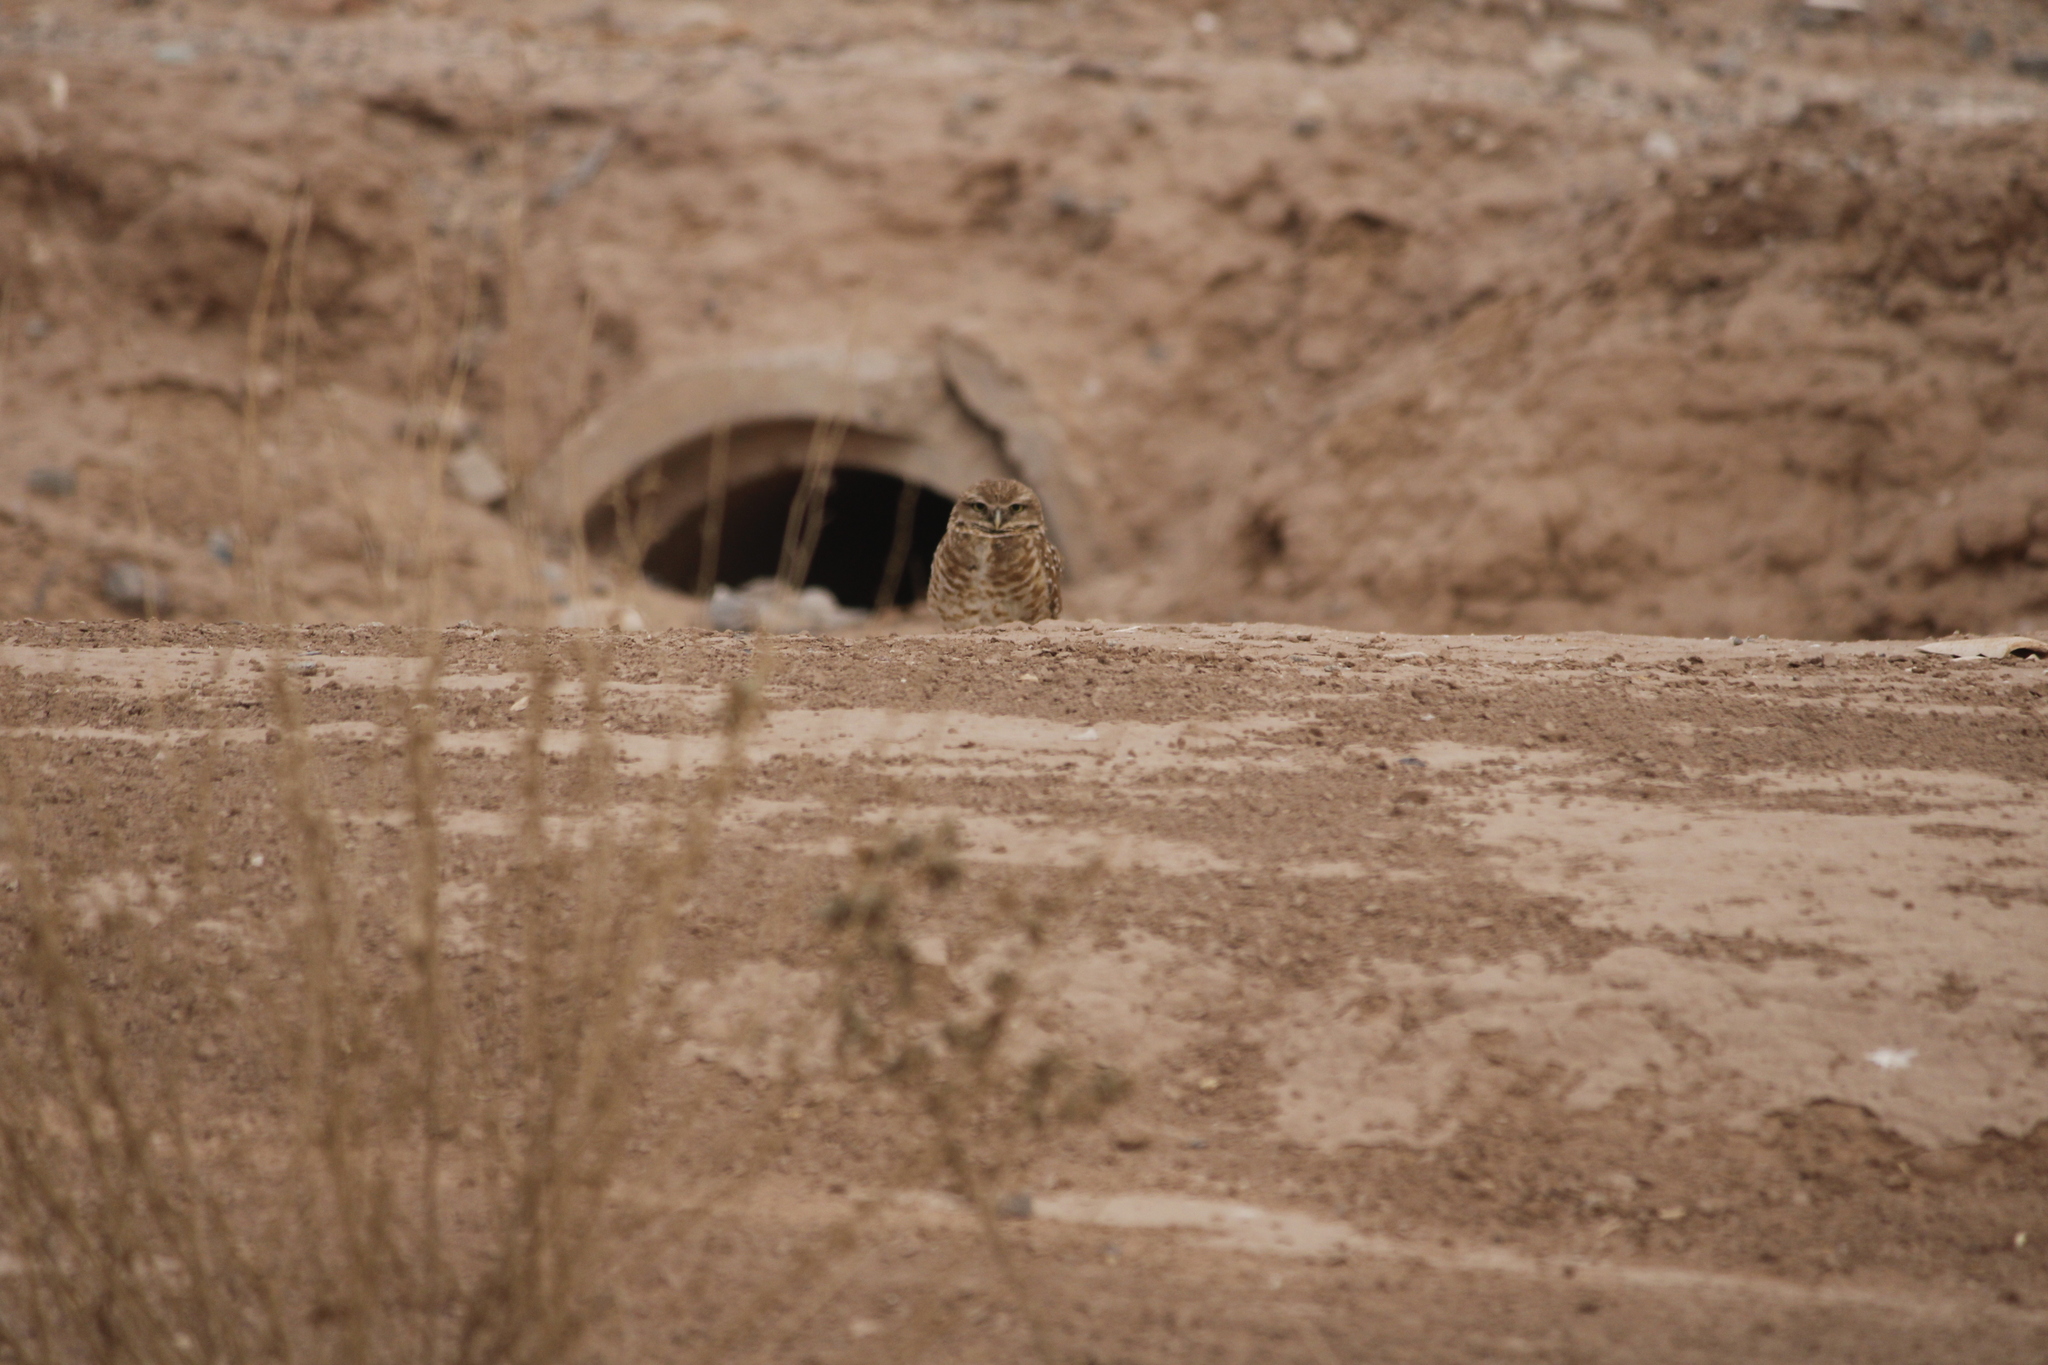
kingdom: Animalia
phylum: Chordata
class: Aves
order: Strigiformes
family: Strigidae
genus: Athene
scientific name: Athene cunicularia
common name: Burrowing owl
